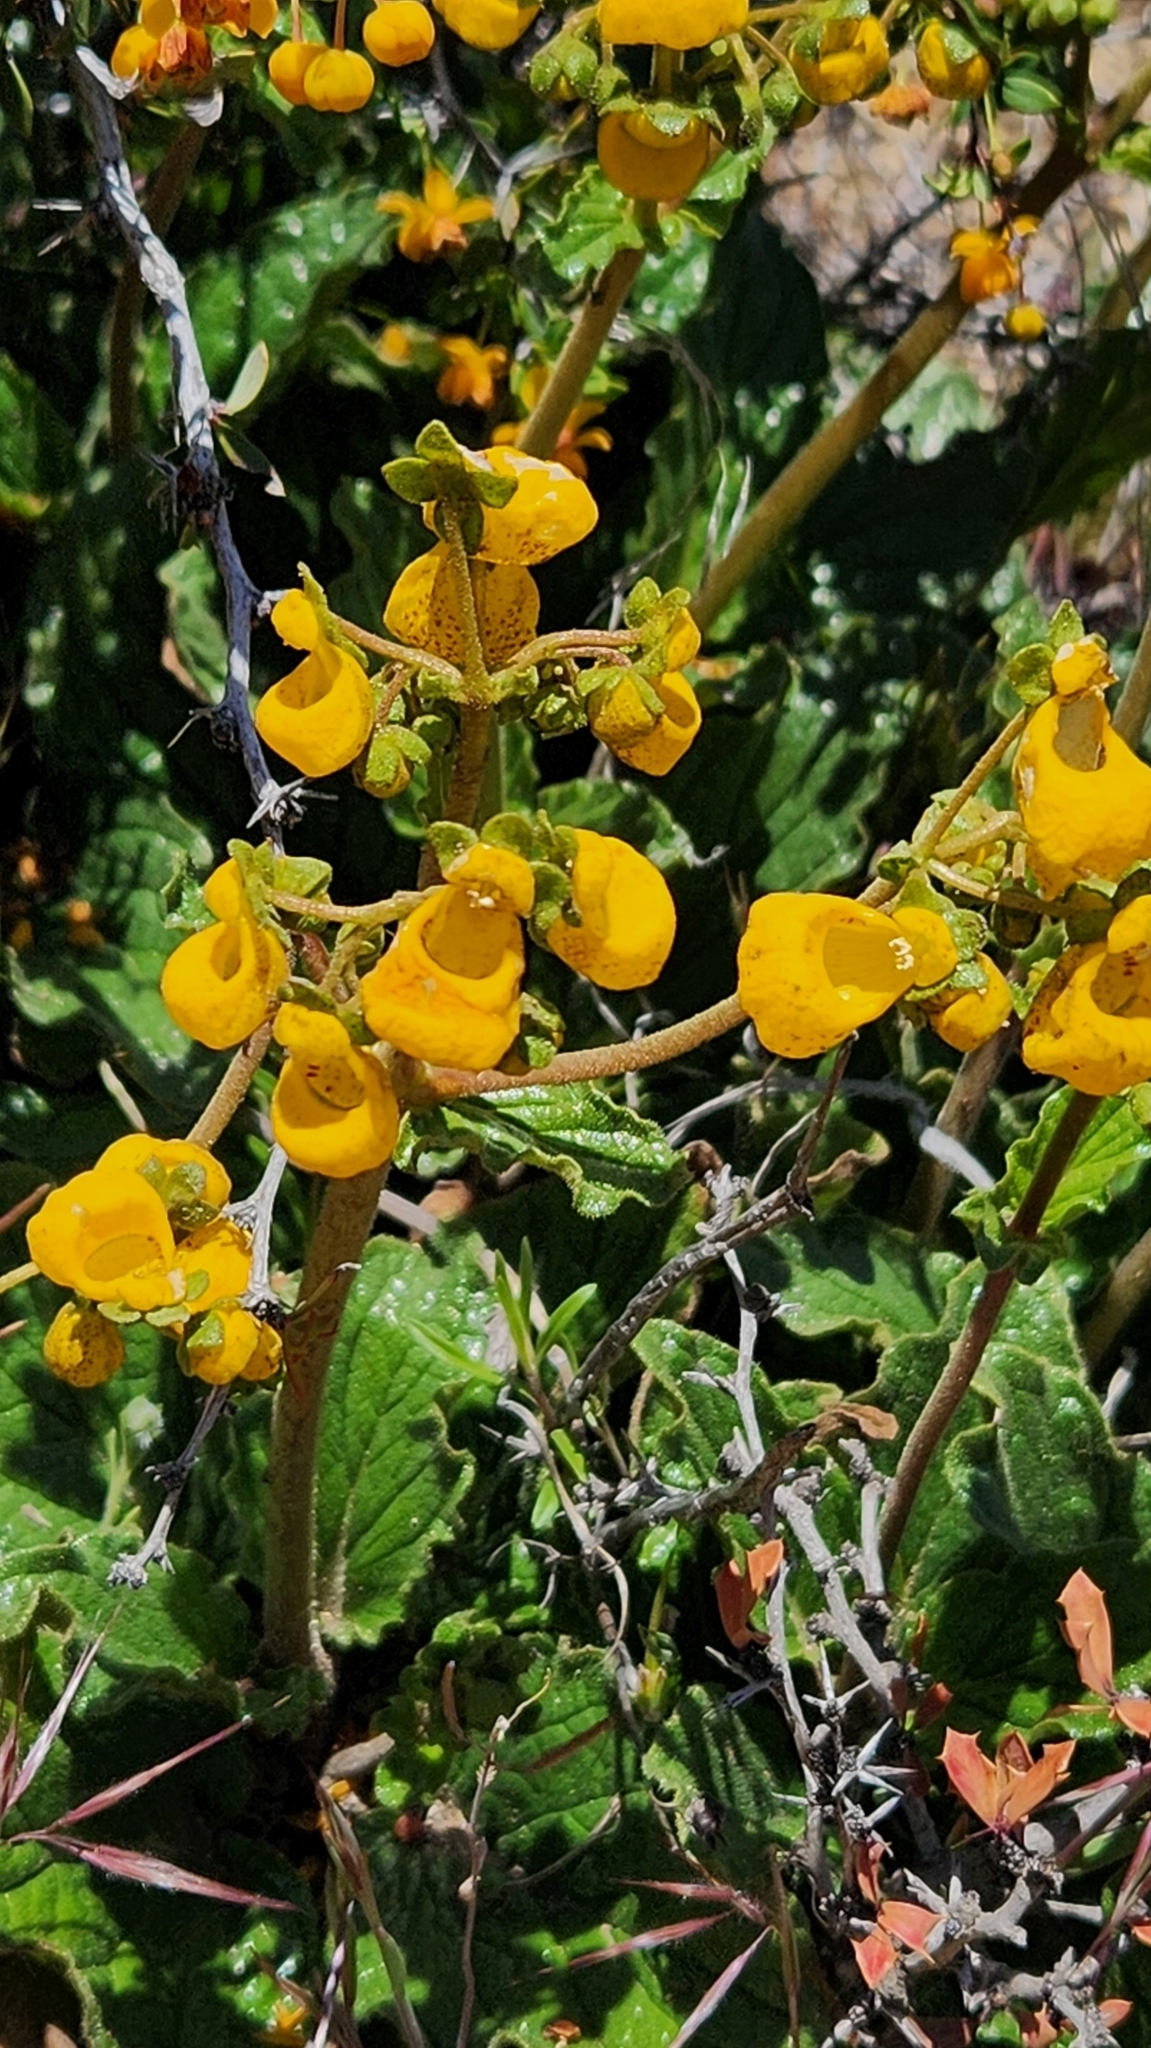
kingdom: Plantae
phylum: Tracheophyta
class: Magnoliopsida
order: Lamiales
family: Calceolariaceae
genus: Calceolaria
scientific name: Calceolaria germainii
